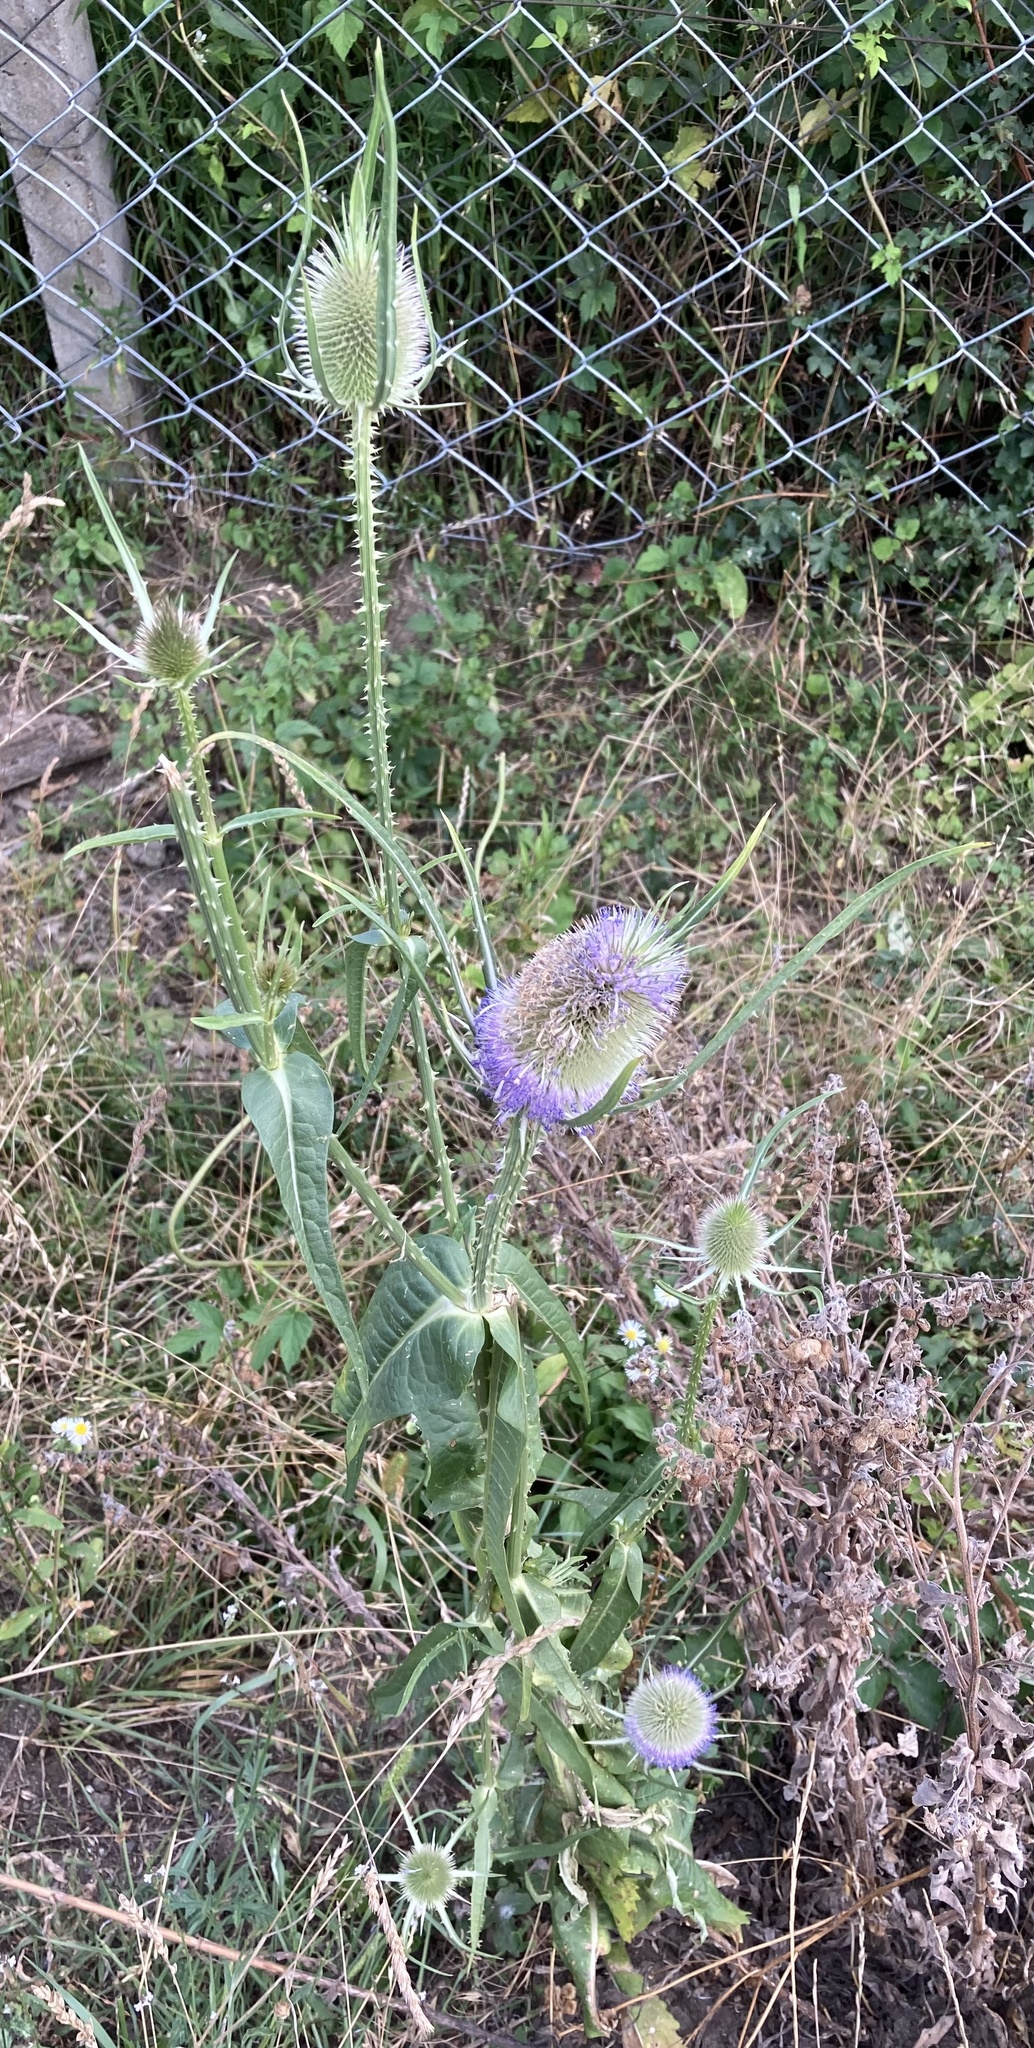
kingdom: Plantae
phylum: Tracheophyta
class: Magnoliopsida
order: Dipsacales
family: Caprifoliaceae
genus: Dipsacus
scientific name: Dipsacus fullonum
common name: Teasel
